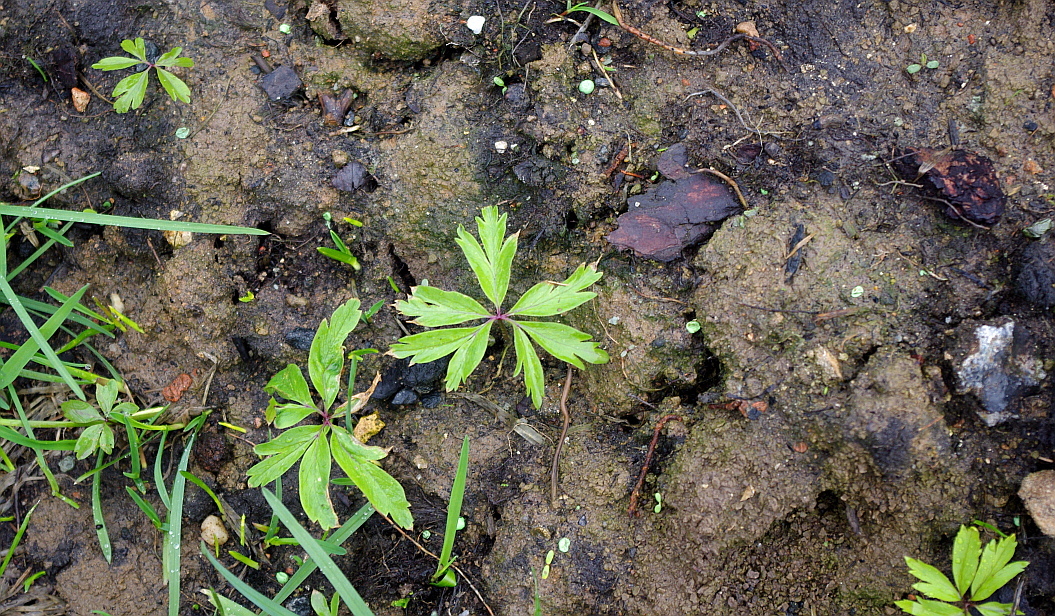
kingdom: Plantae
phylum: Tracheophyta
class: Magnoliopsida
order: Ranunculales
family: Ranunculaceae
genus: Anemone
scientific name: Anemone ranunculoides
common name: Yellow anemone
